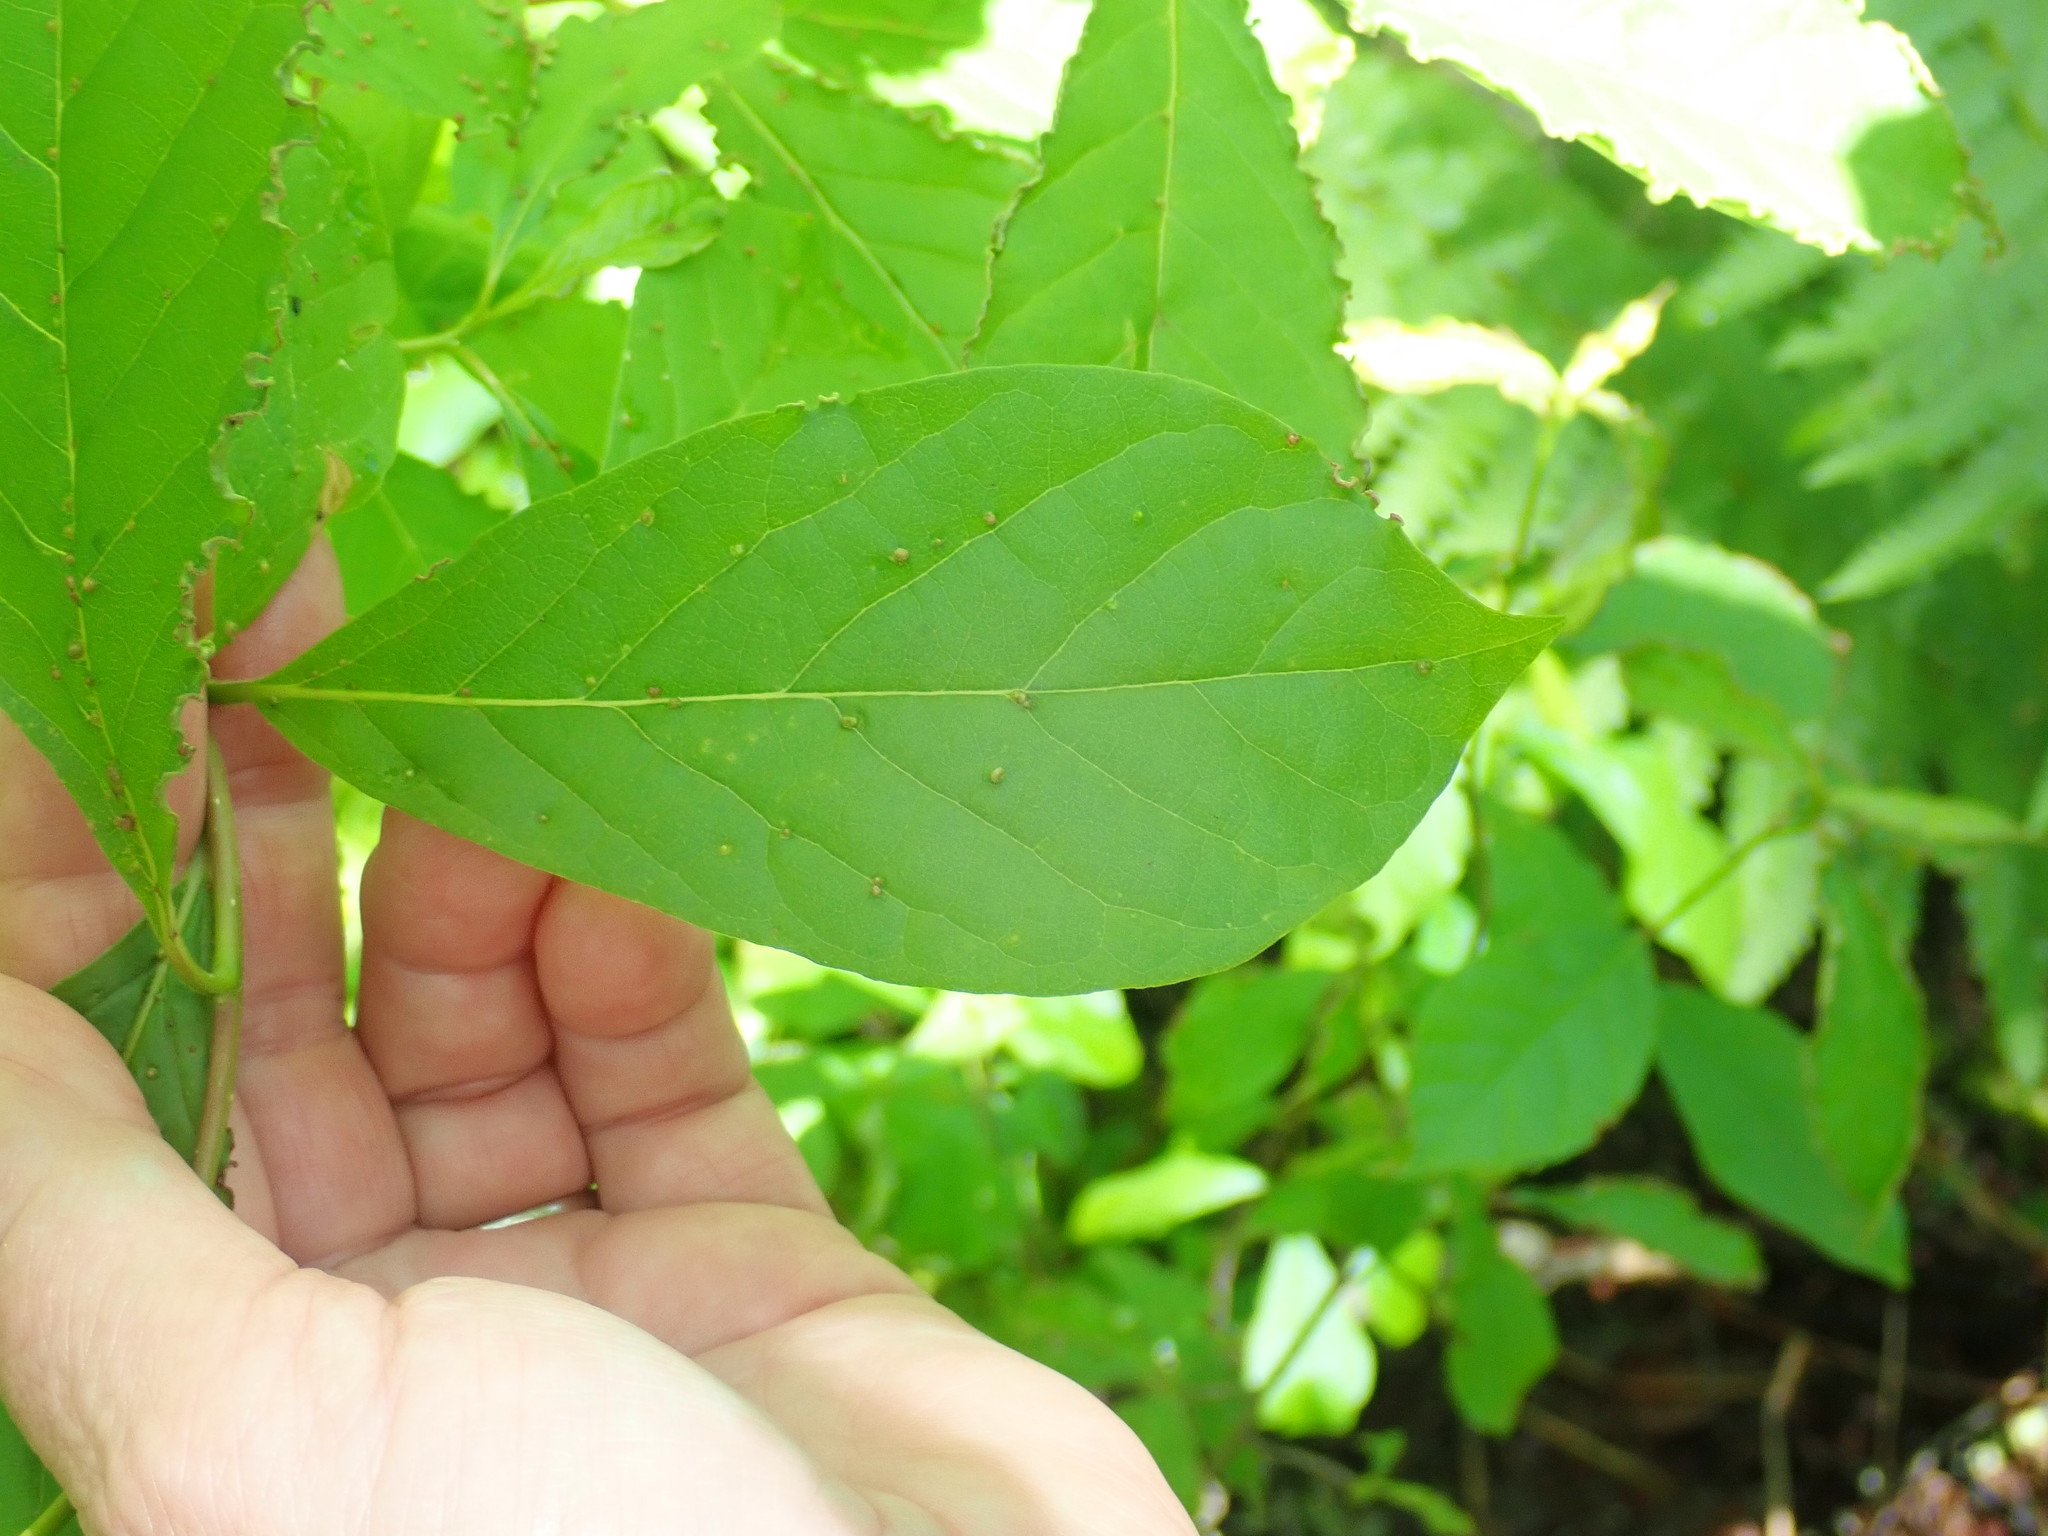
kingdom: Plantae
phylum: Tracheophyta
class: Magnoliopsida
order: Cornales
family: Nyssaceae
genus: Nyssa
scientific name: Nyssa sylvatica
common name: Black tupelo
